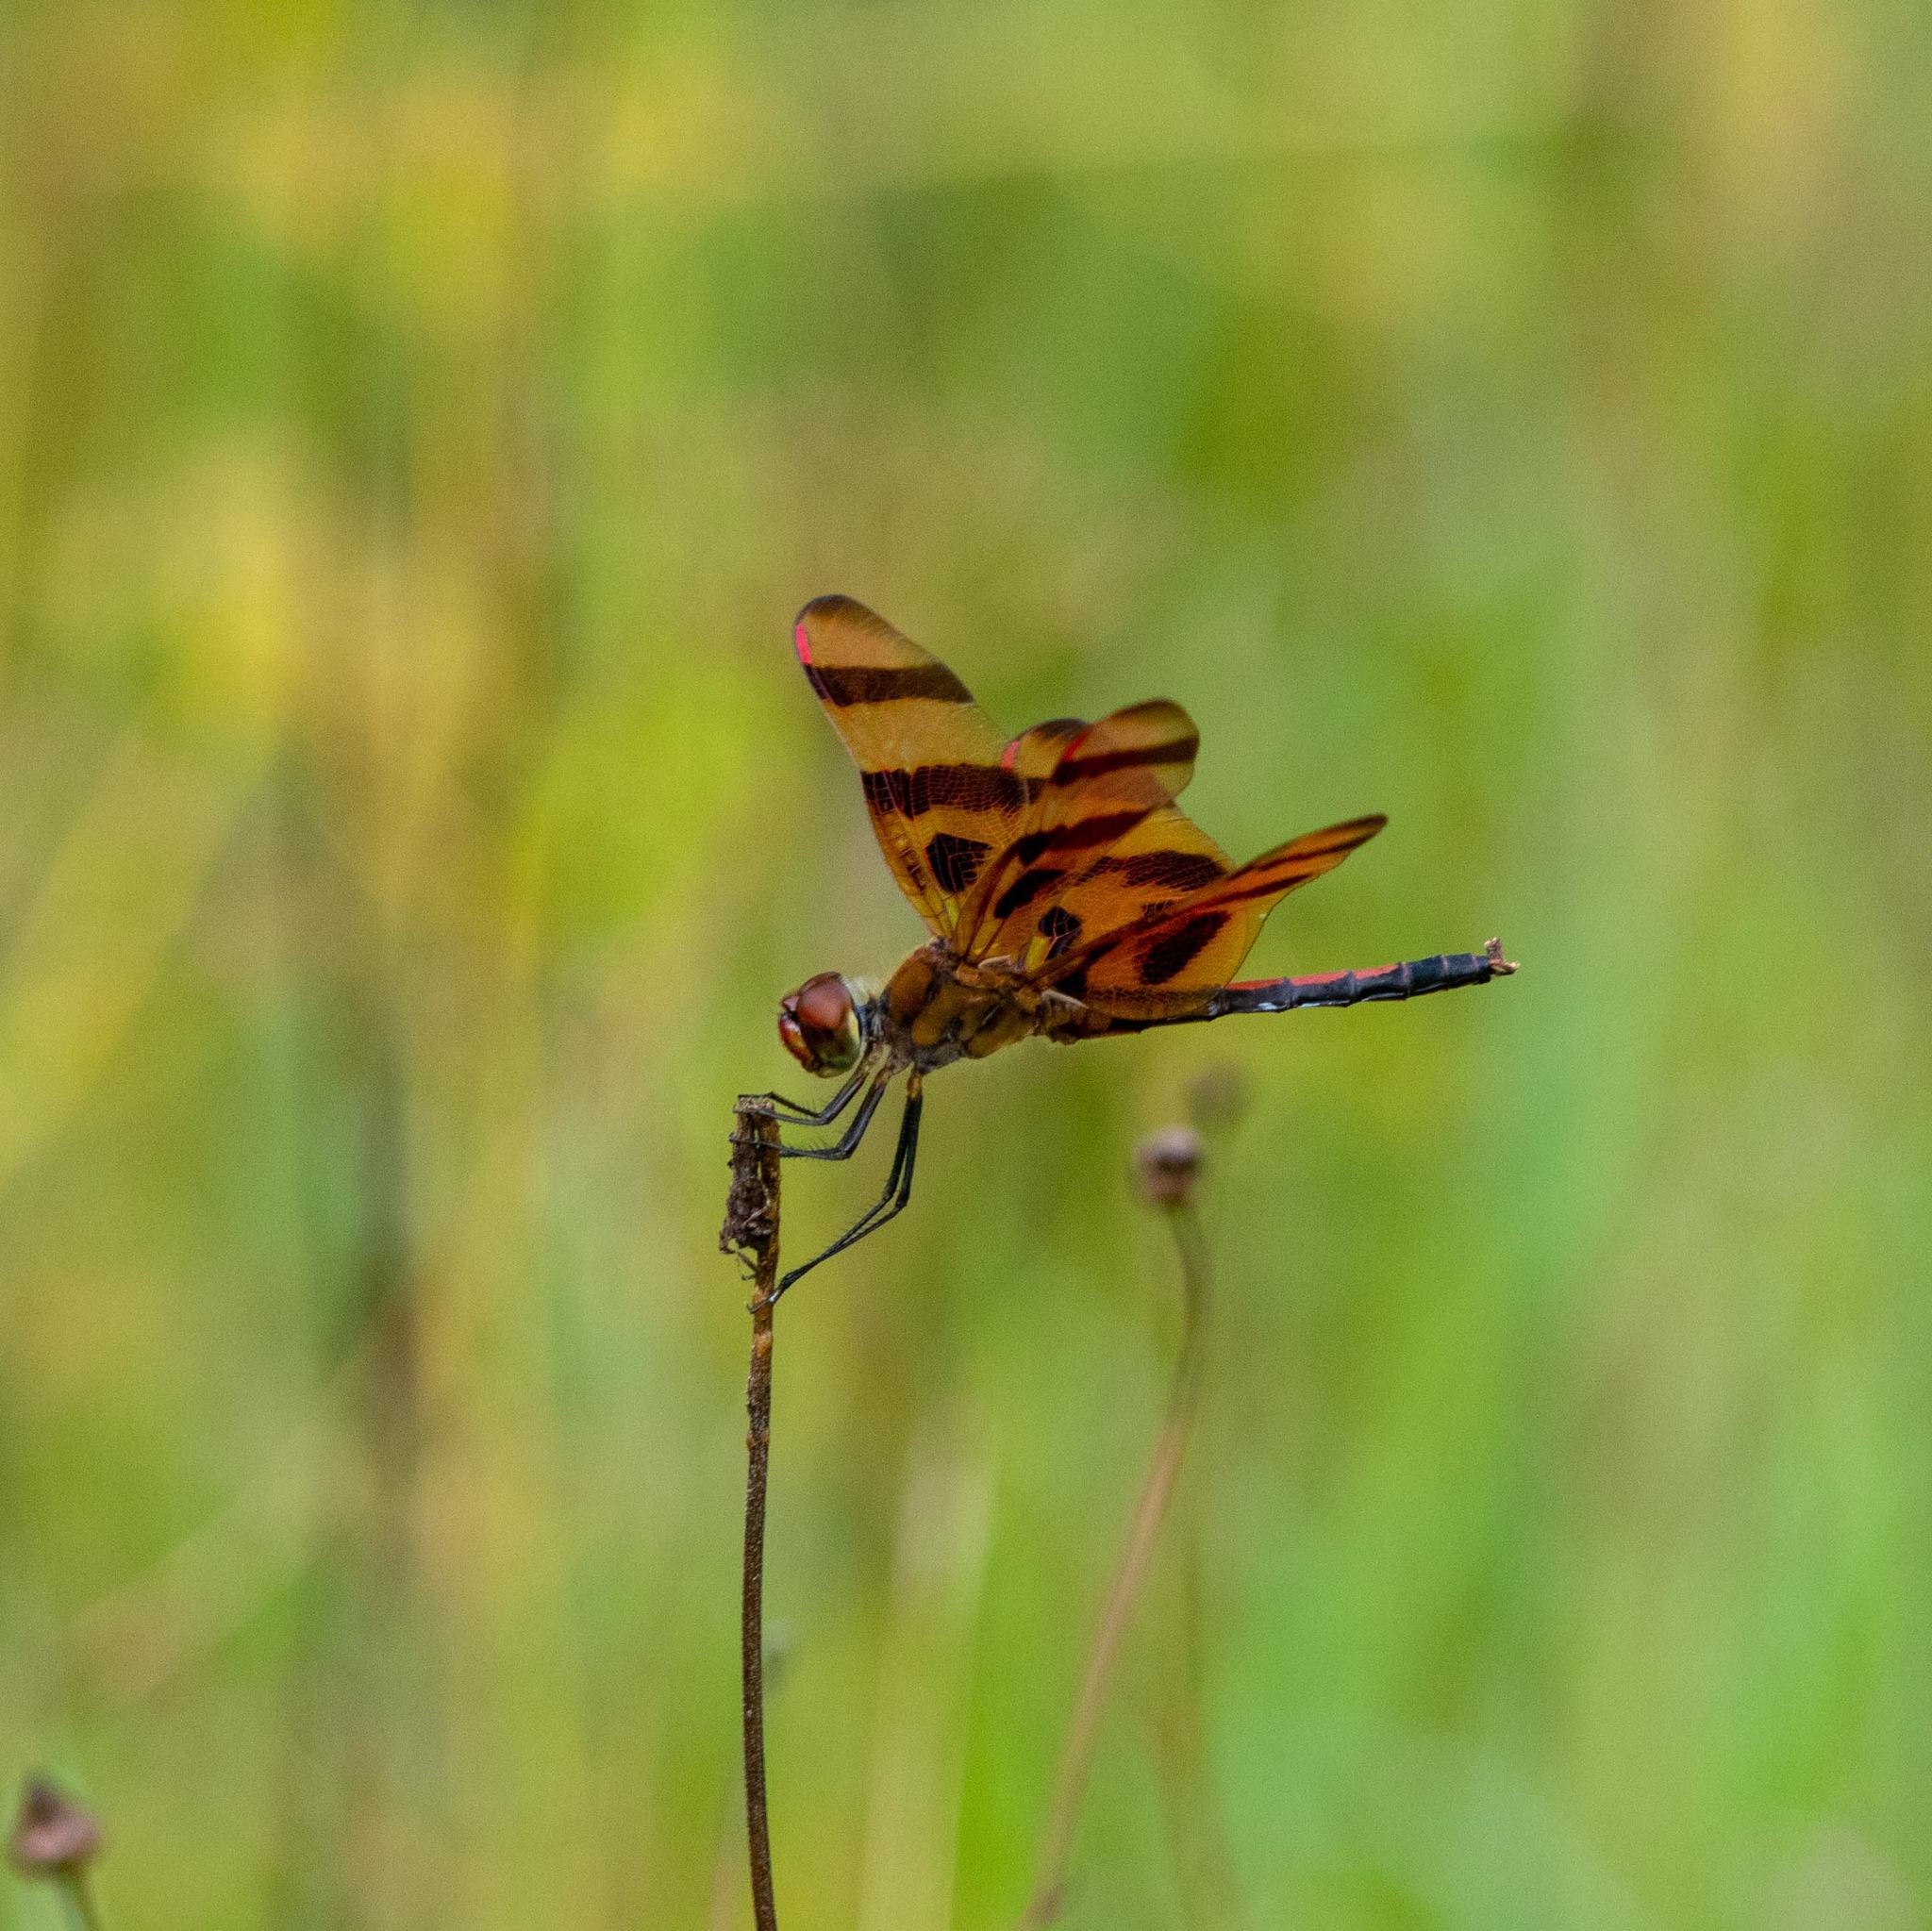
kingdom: Animalia
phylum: Arthropoda
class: Insecta
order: Odonata
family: Libellulidae
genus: Celithemis
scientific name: Celithemis eponina
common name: Halloween pennant
